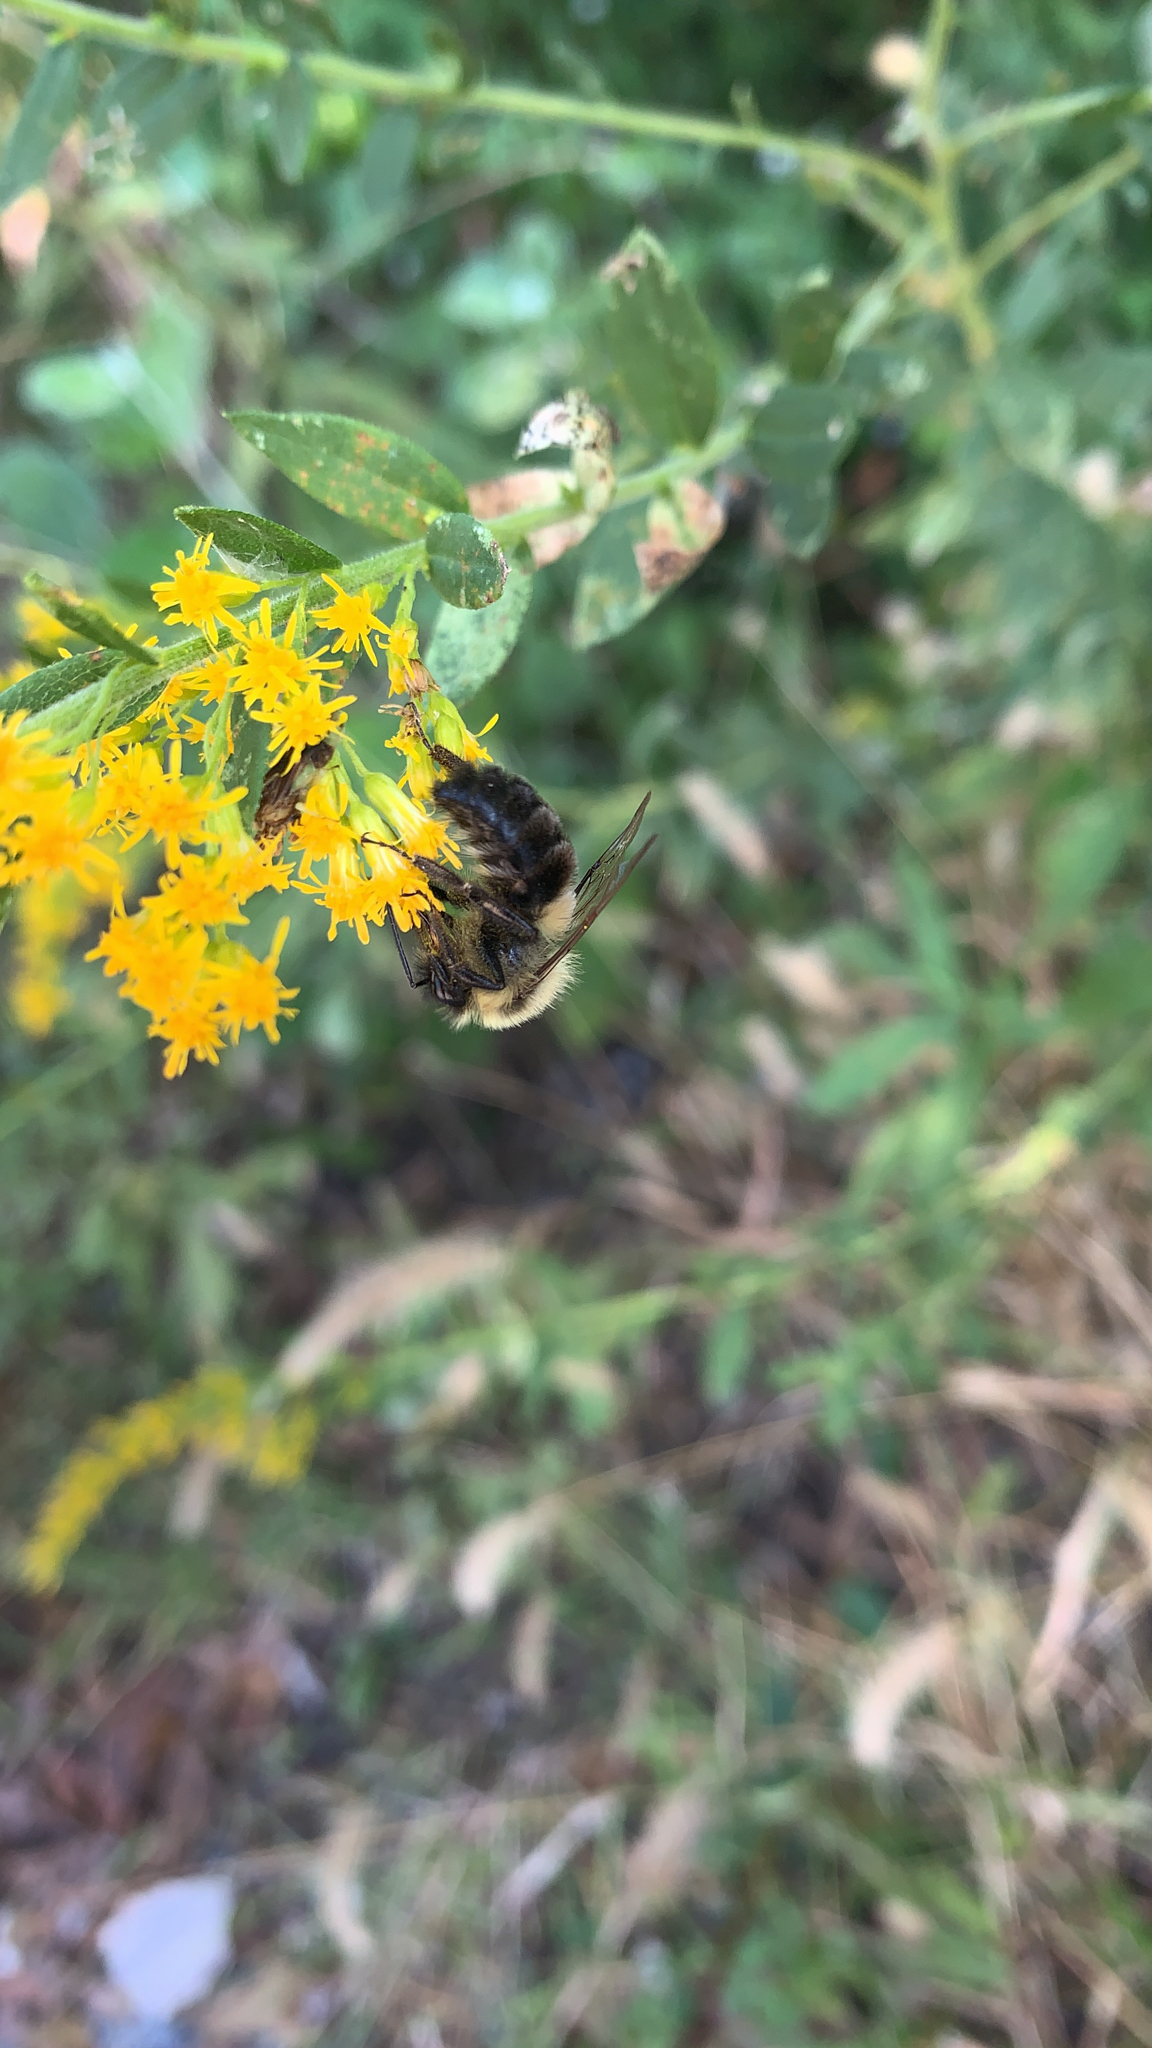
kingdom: Animalia
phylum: Arthropoda
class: Insecta
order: Hymenoptera
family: Apidae
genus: Bombus
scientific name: Bombus impatiens
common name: Common eastern bumble bee
